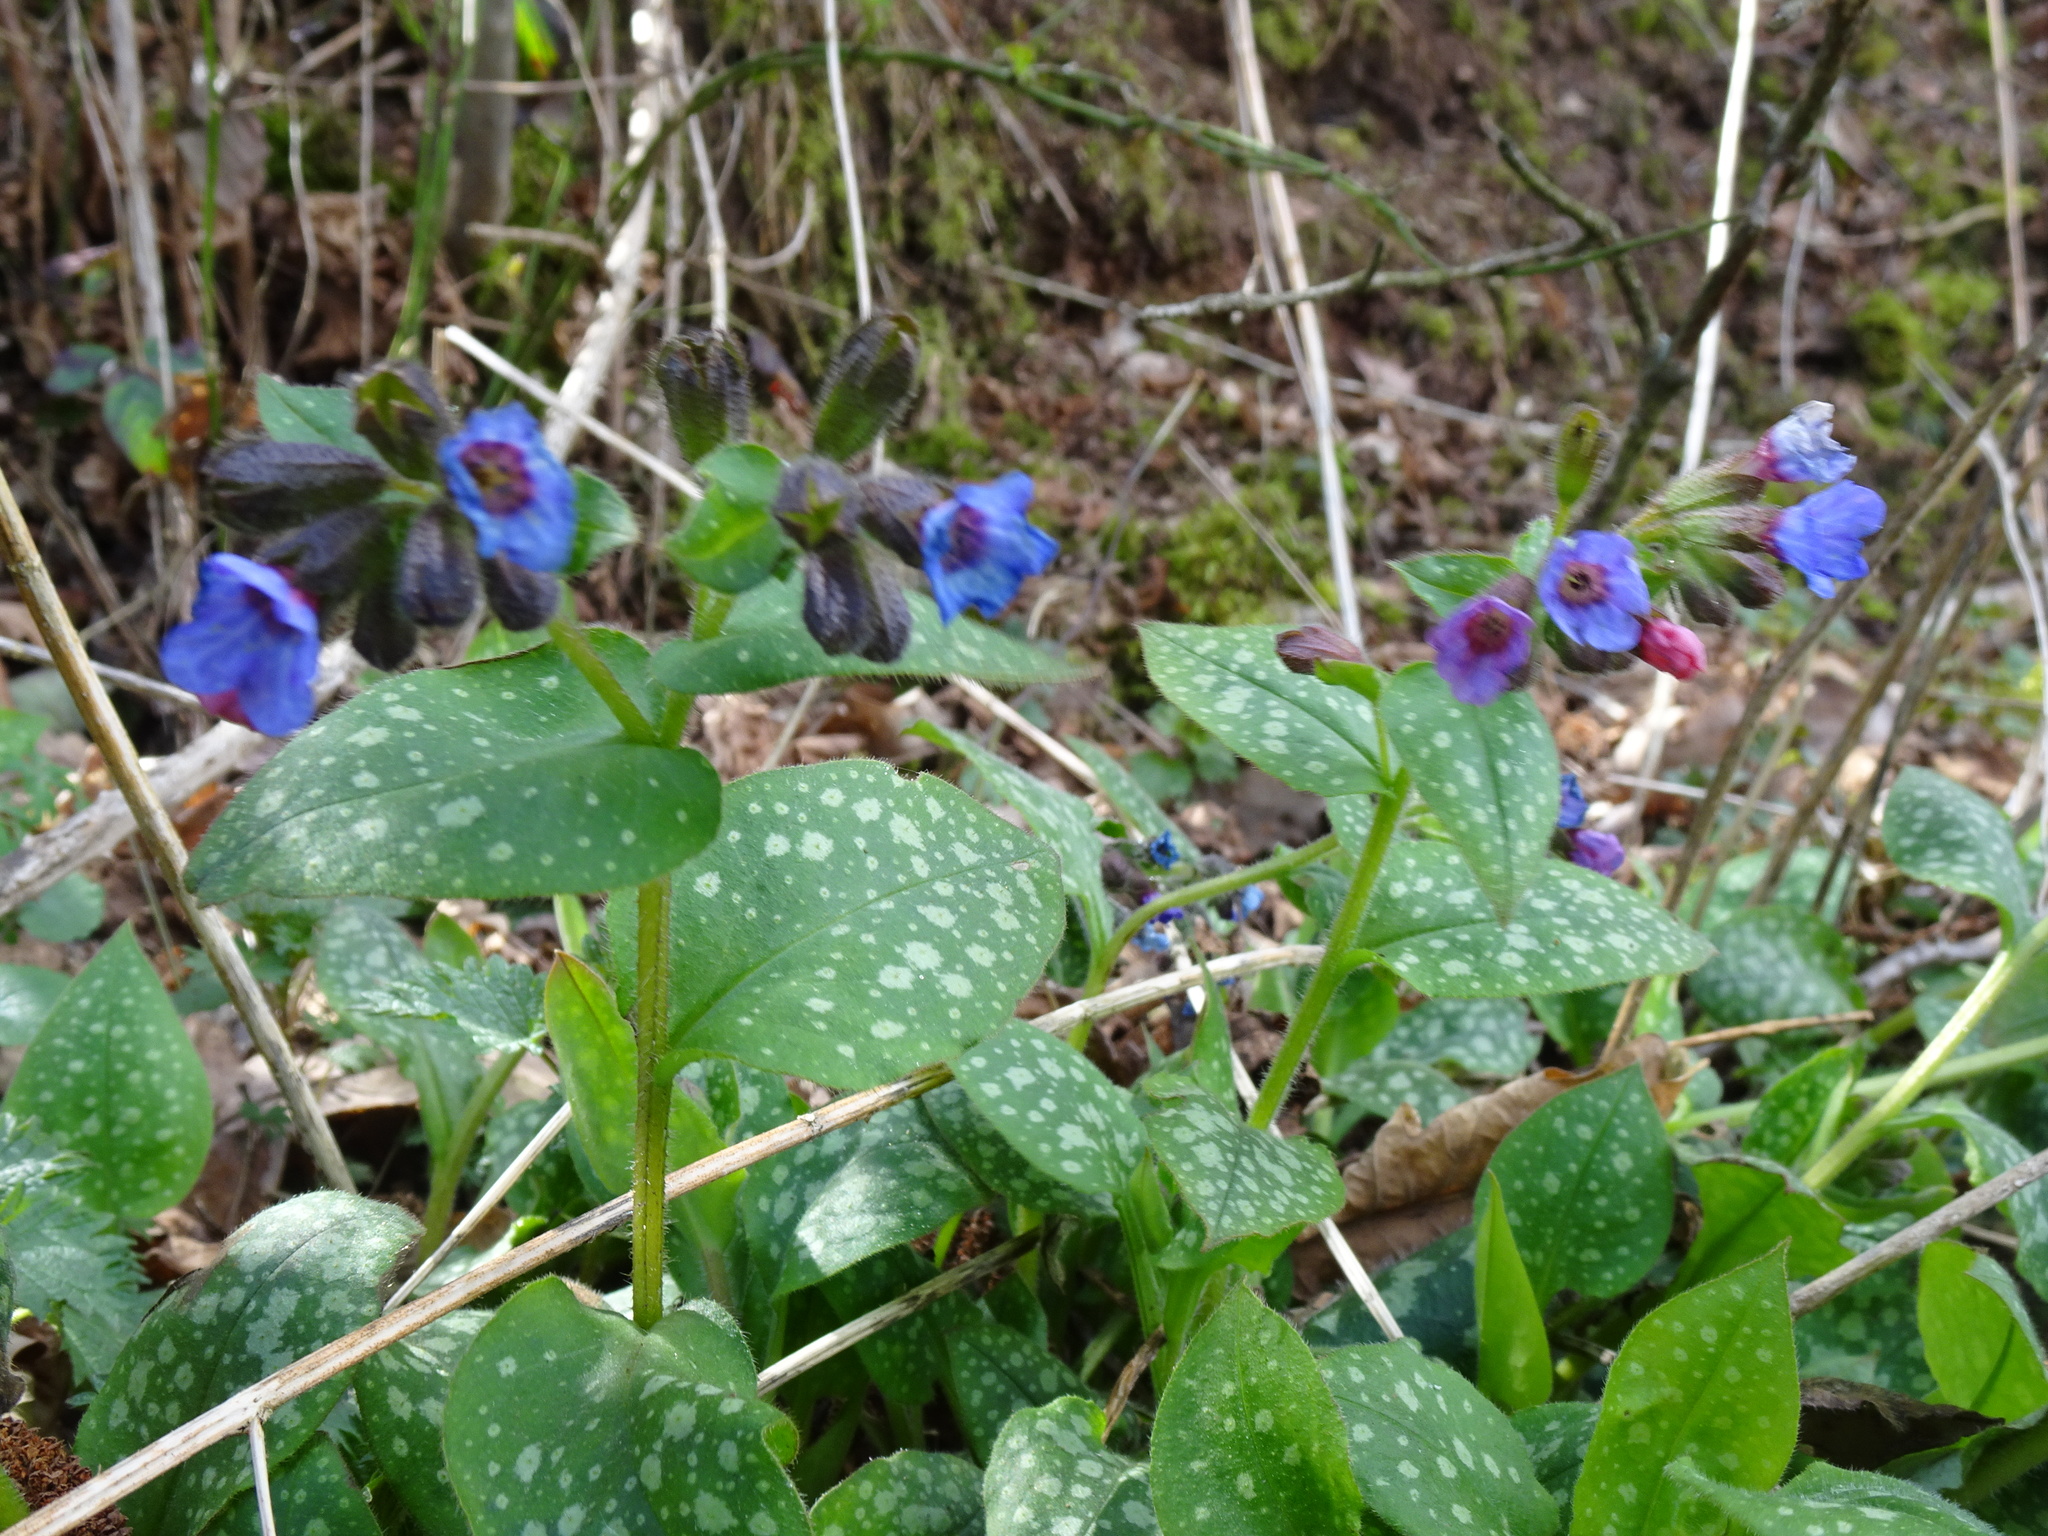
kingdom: Plantae
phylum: Tracheophyta
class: Magnoliopsida
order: Boraginales
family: Boraginaceae
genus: Pulmonaria
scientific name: Pulmonaria officinalis
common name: Lungwort
